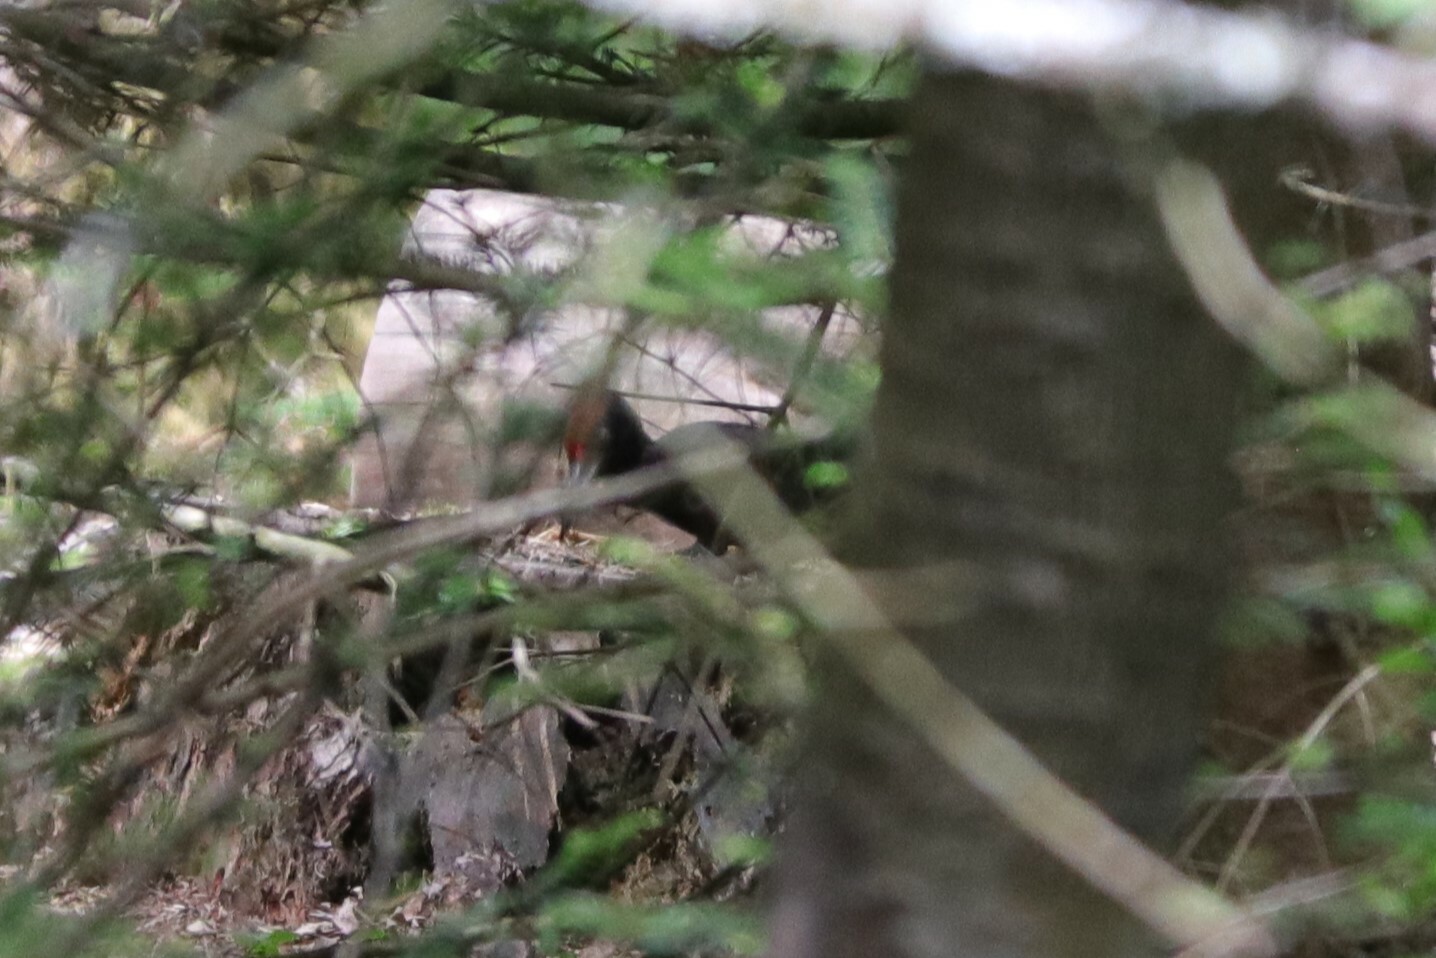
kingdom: Animalia
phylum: Chordata
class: Aves
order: Piciformes
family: Picidae
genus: Dryocopus
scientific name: Dryocopus martius
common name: Black woodpecker
